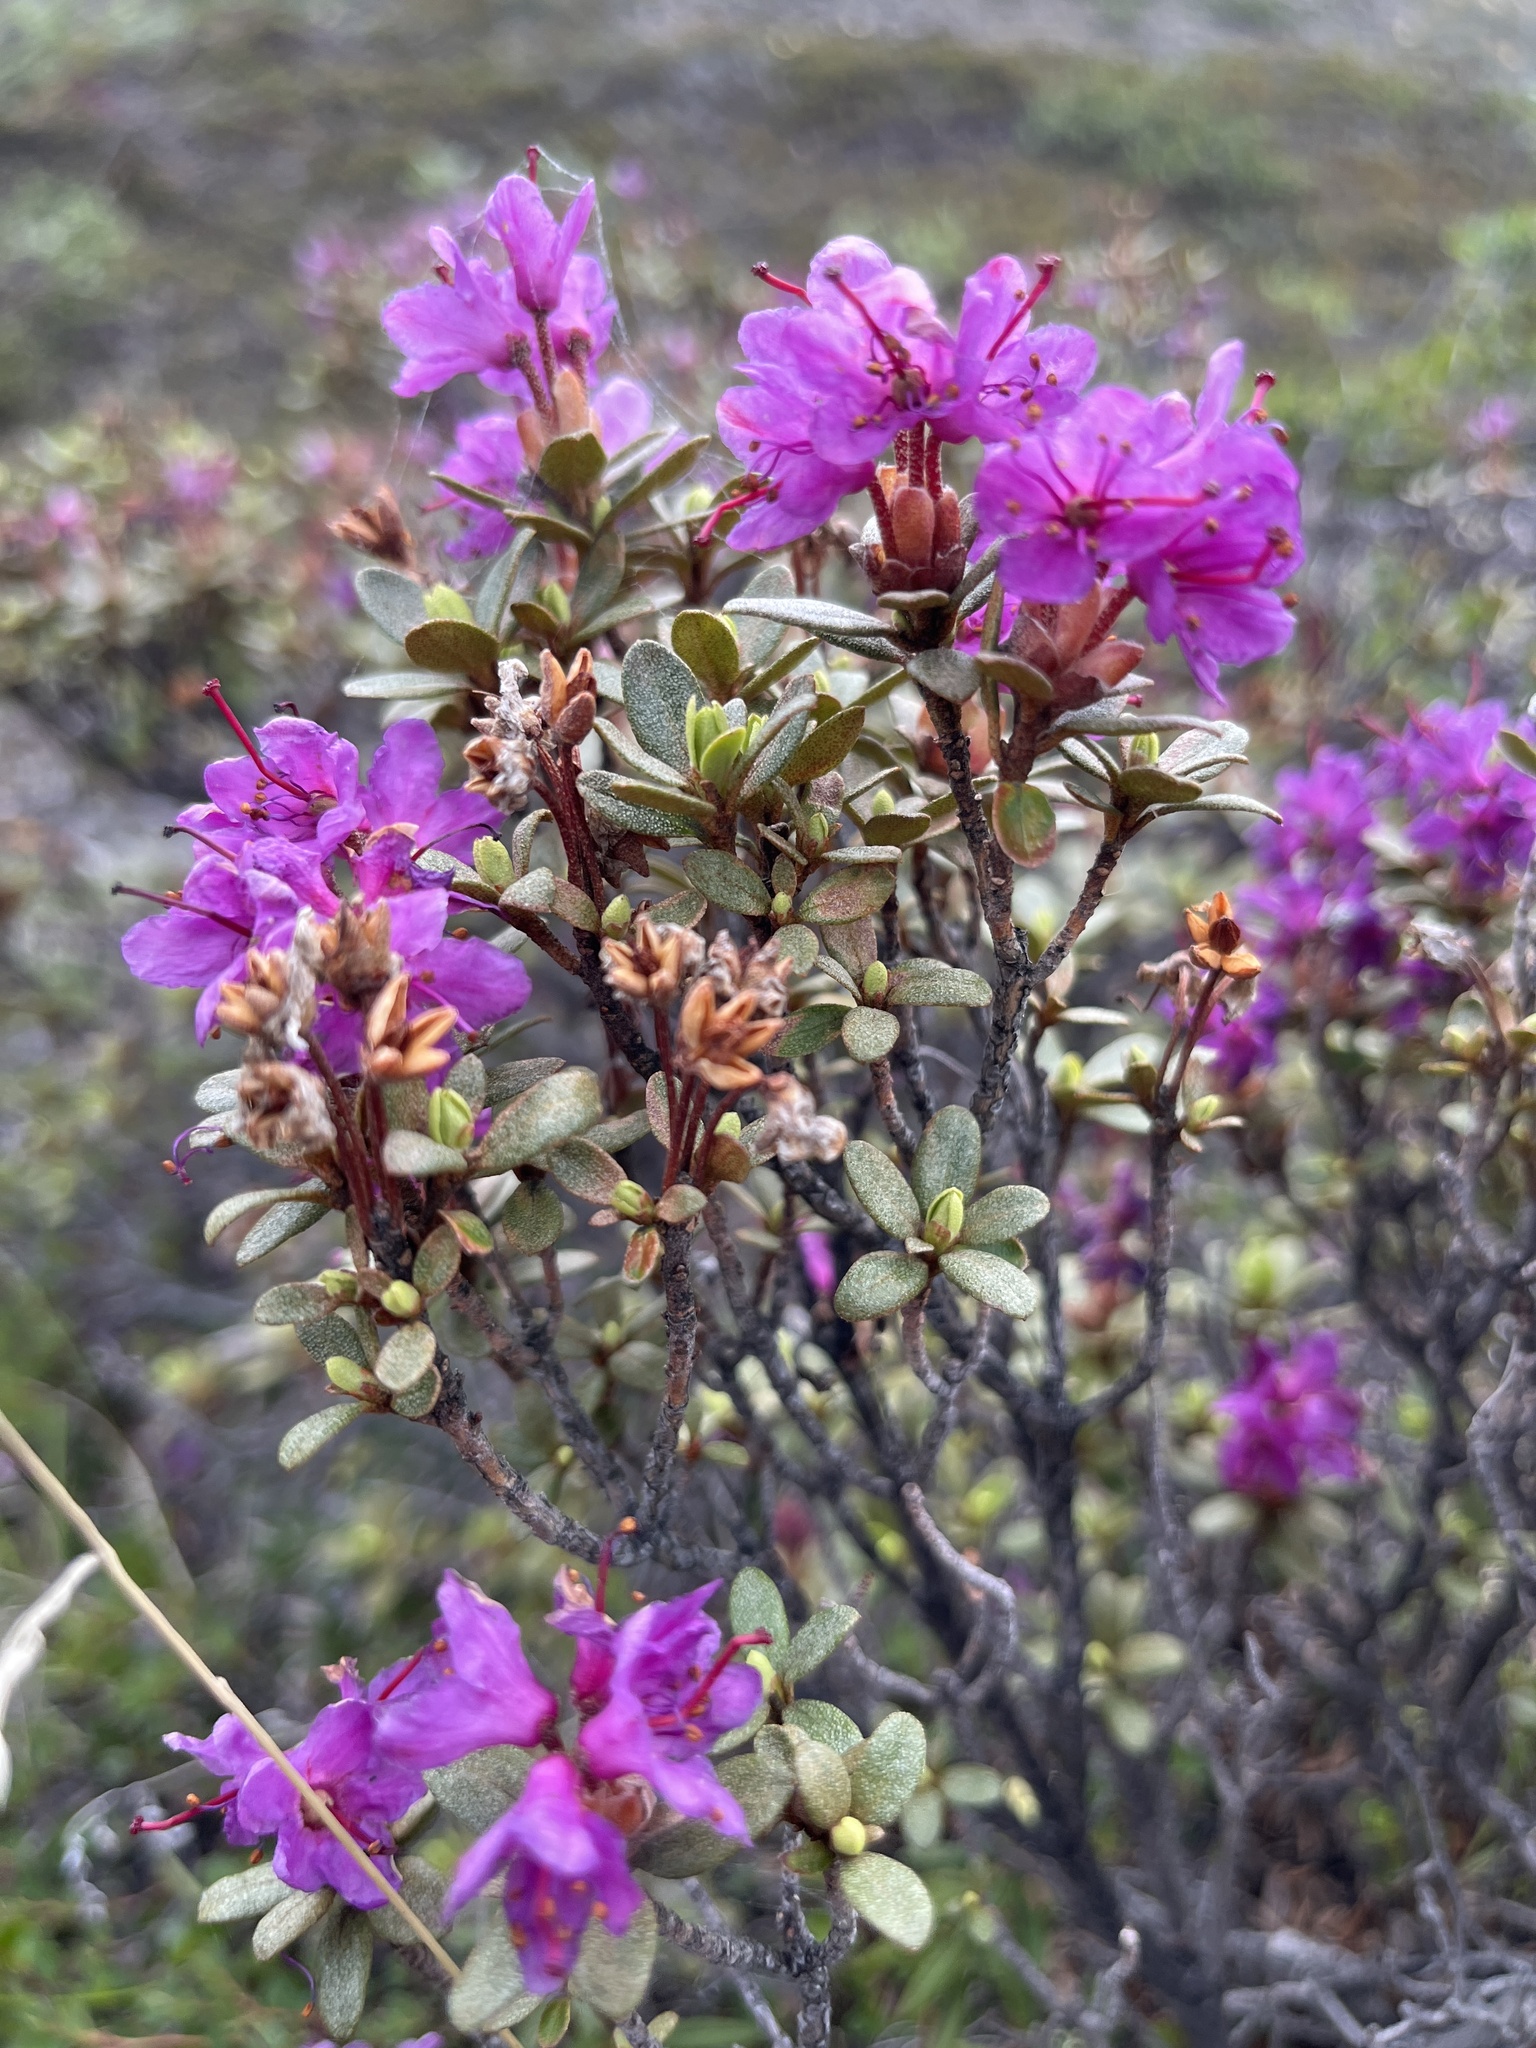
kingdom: Plantae
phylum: Tracheophyta
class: Magnoliopsida
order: Ericales
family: Ericaceae
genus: Rhododendron
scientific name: Rhododendron lapponicum
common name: Lapland rhododendron
